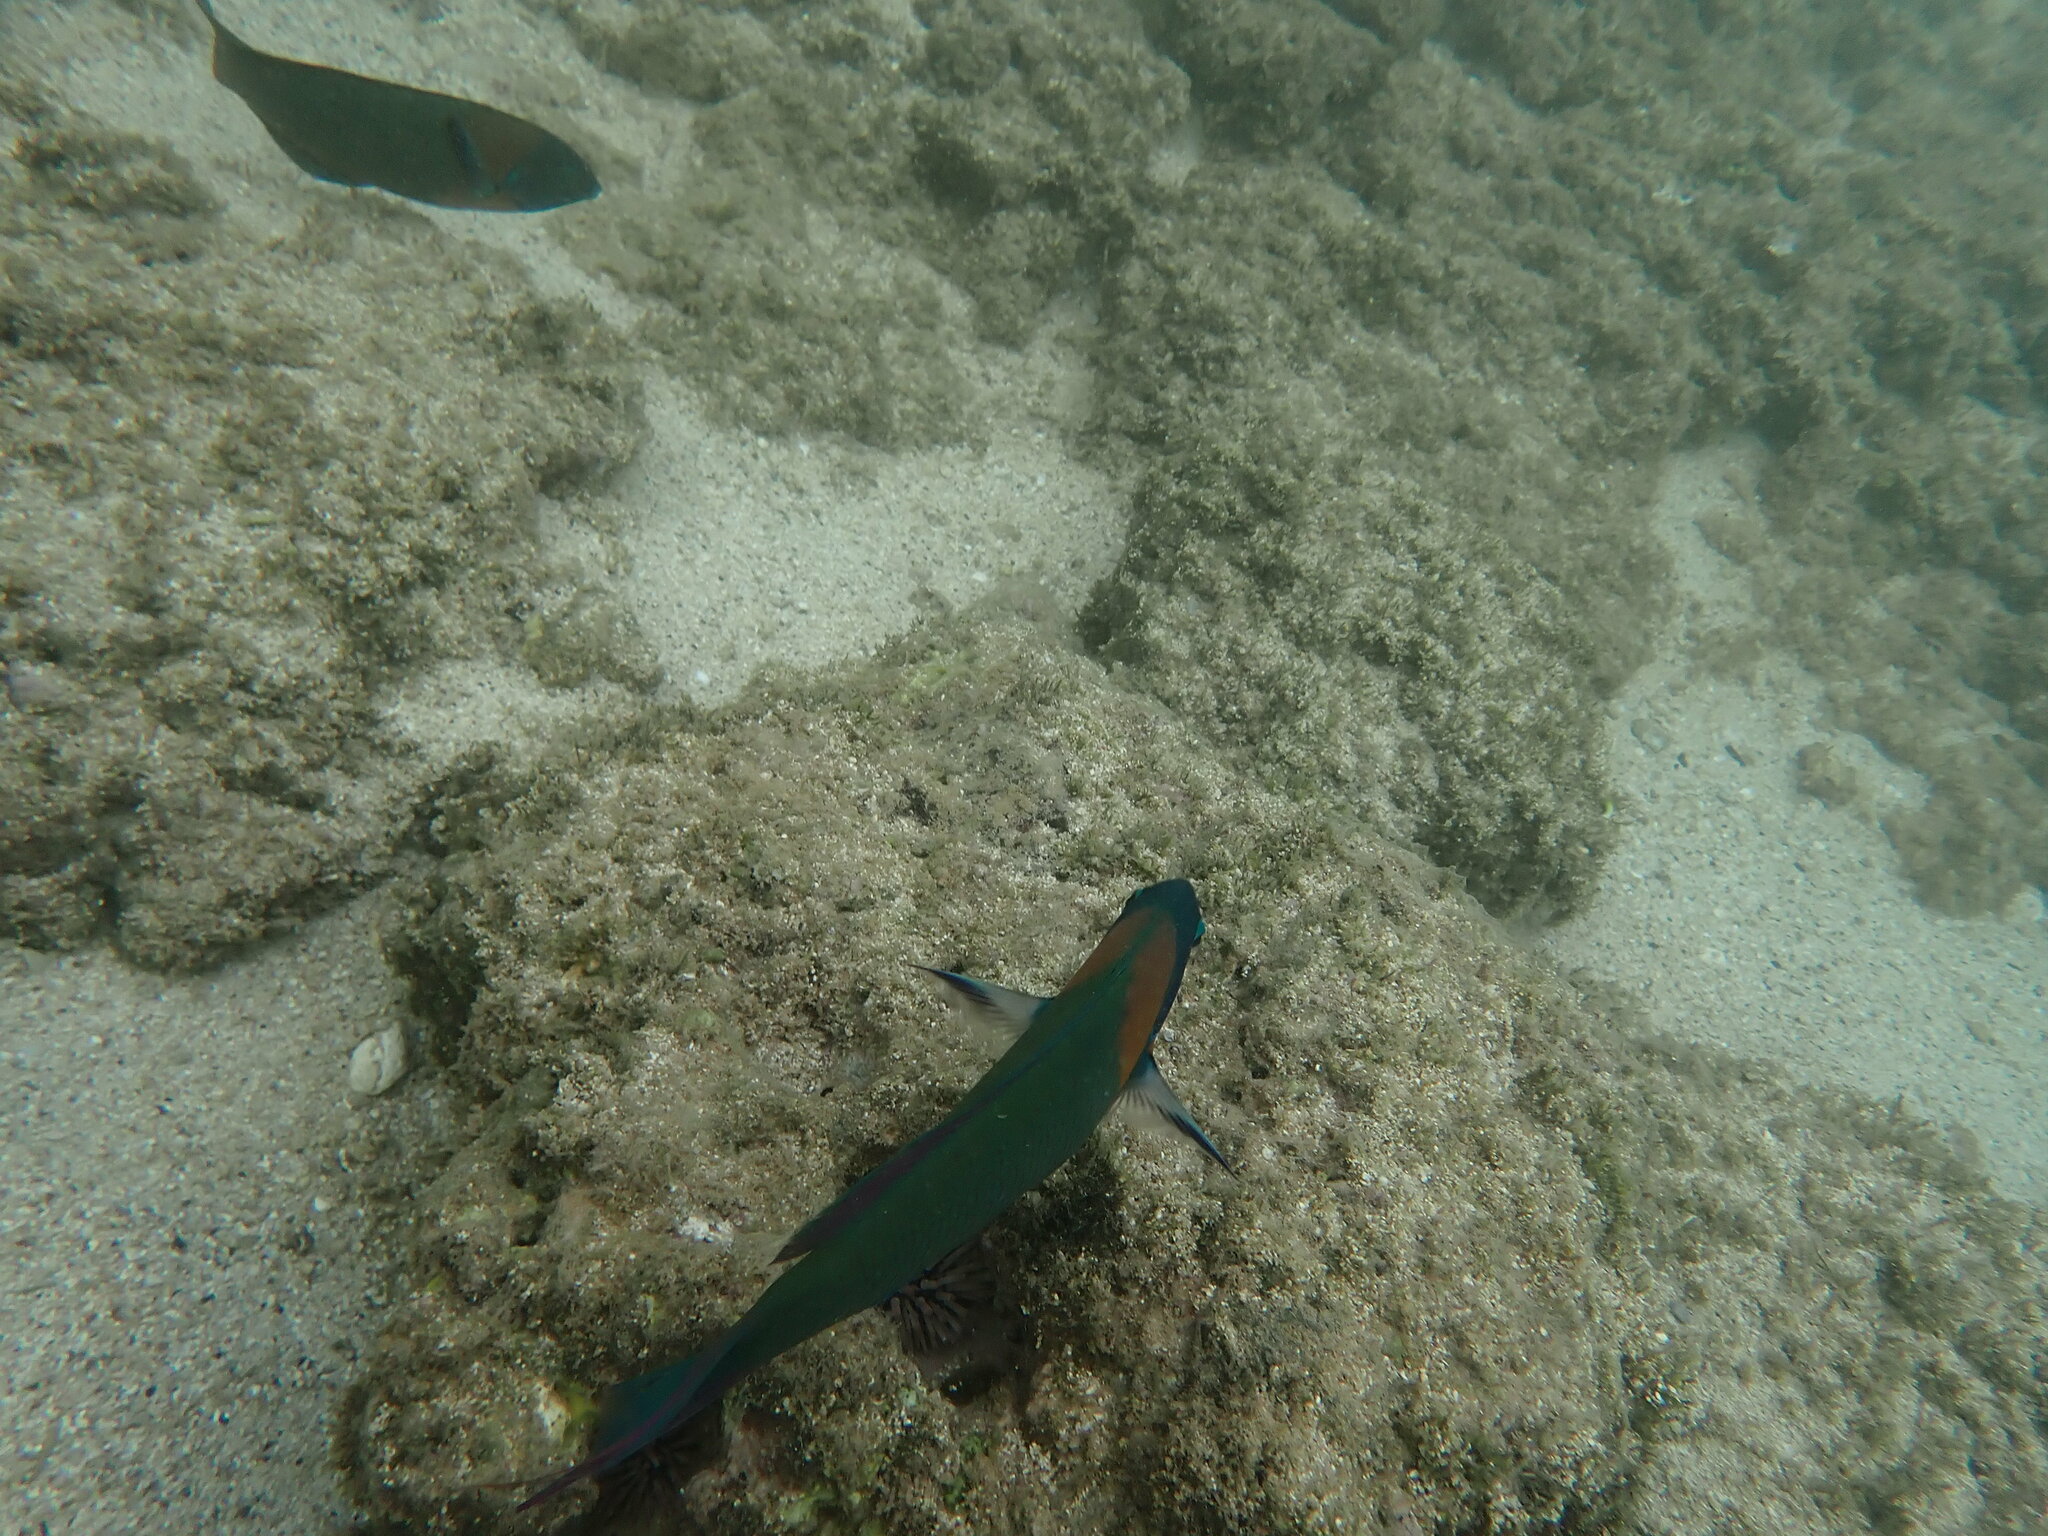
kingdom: Animalia
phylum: Chordata
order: Perciformes
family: Labridae
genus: Thalassoma
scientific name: Thalassoma duperrey
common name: Saddle wrasse
